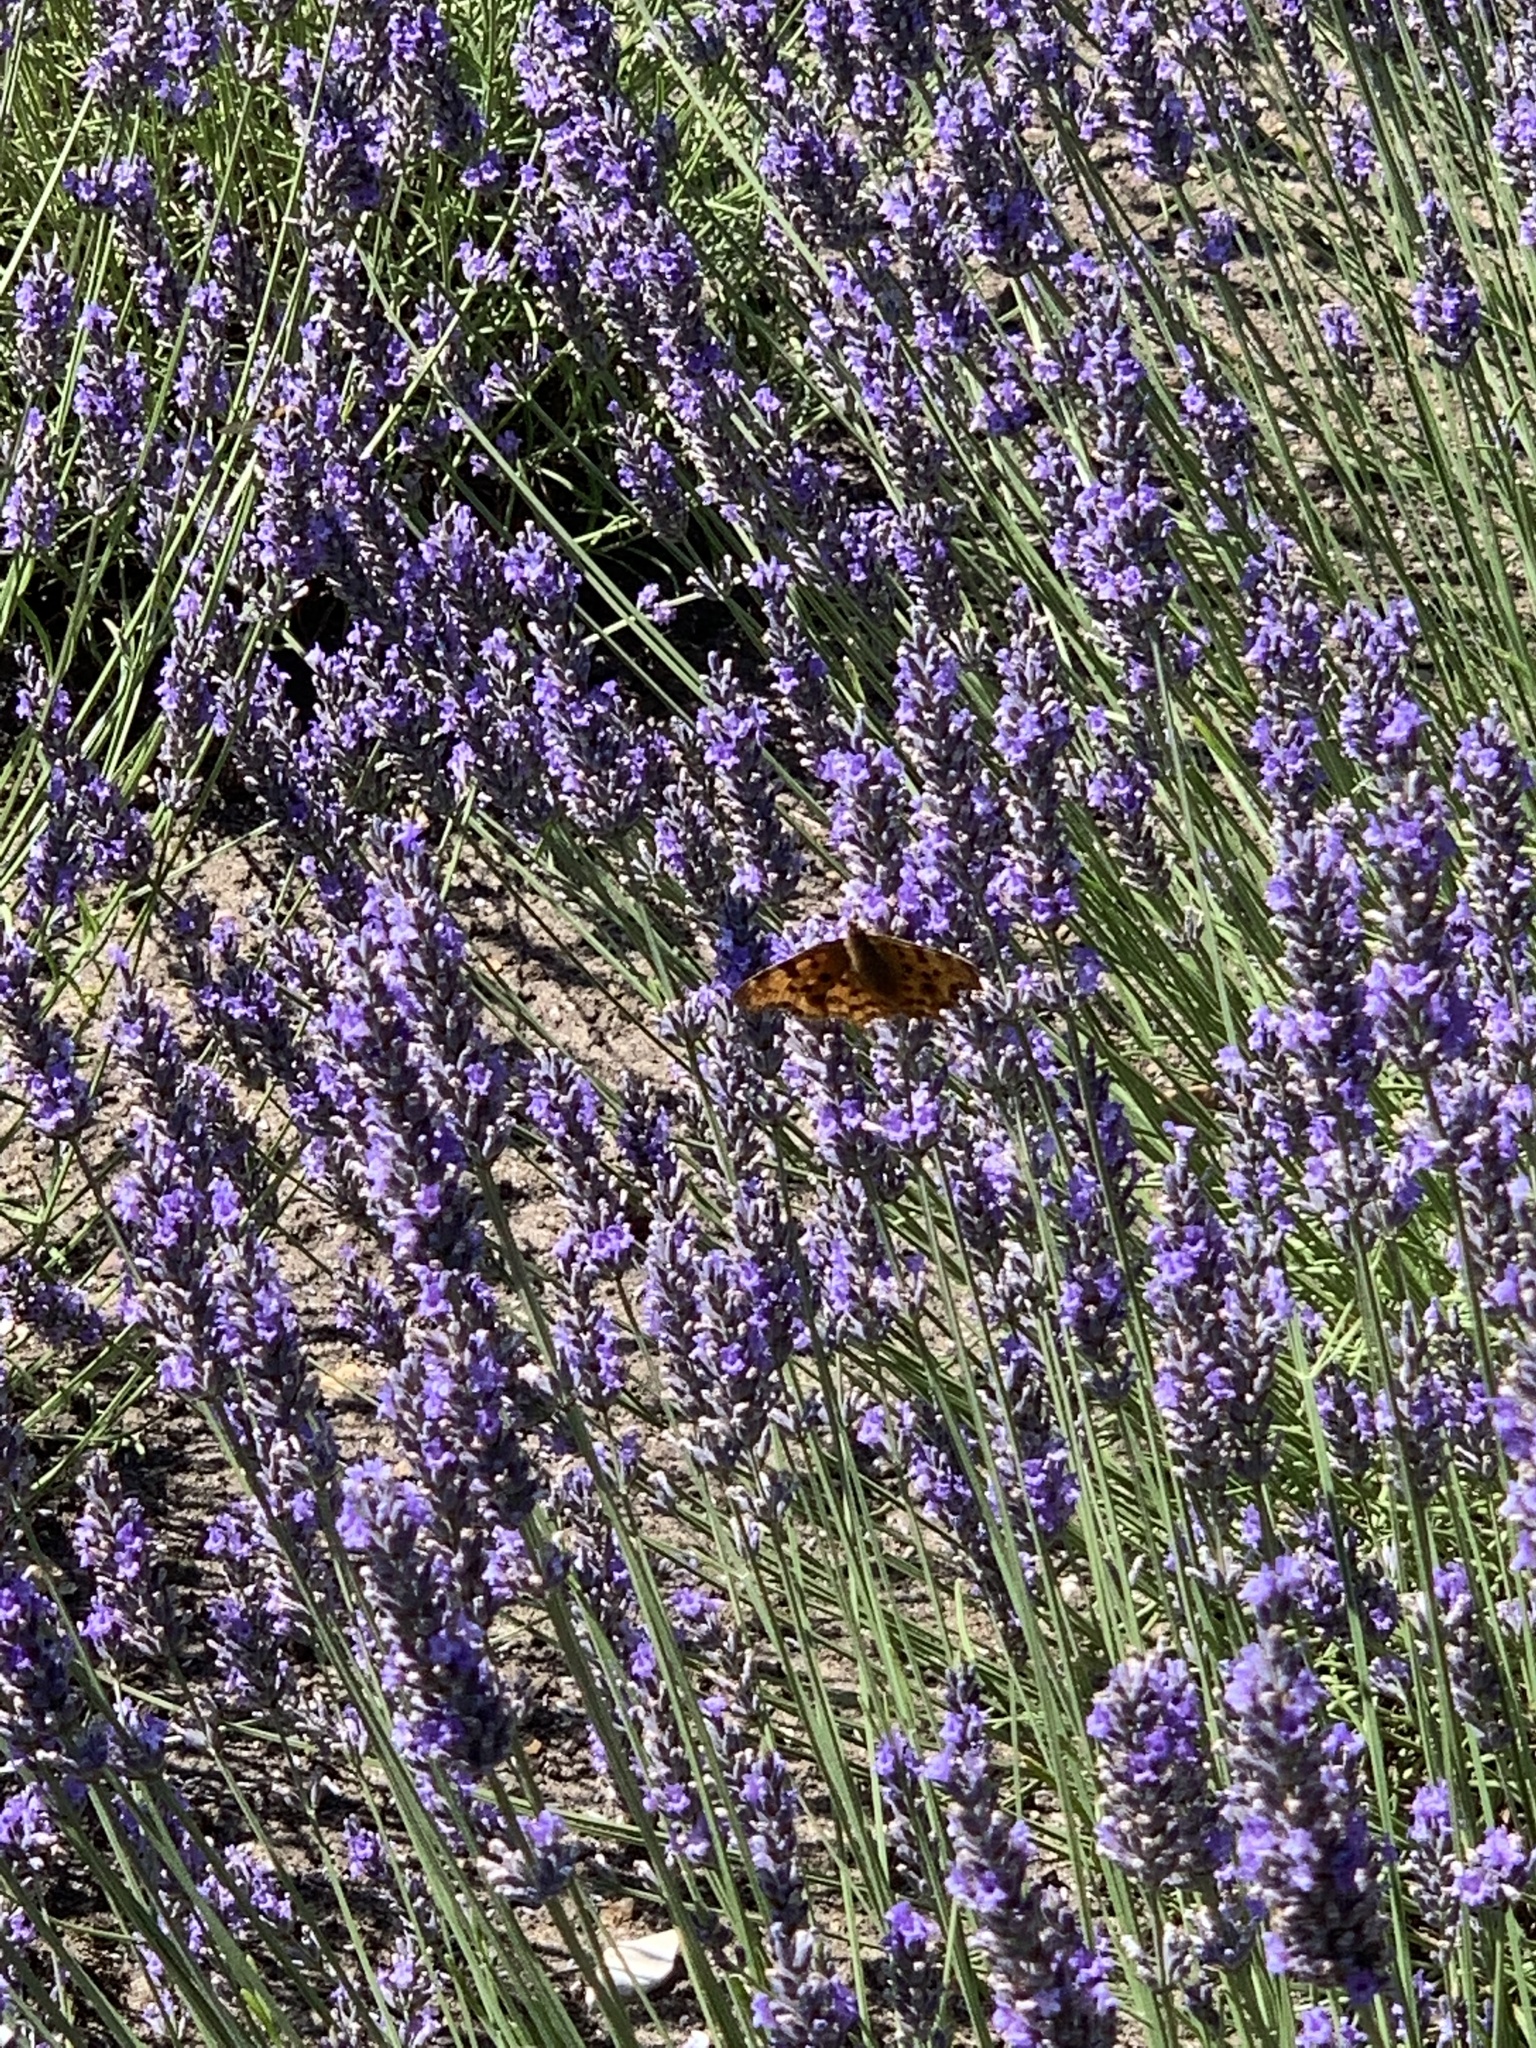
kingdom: Animalia
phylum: Arthropoda
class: Insecta
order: Lepidoptera
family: Nymphalidae
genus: Polygonia
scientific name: Polygonia c-album
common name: Comma
